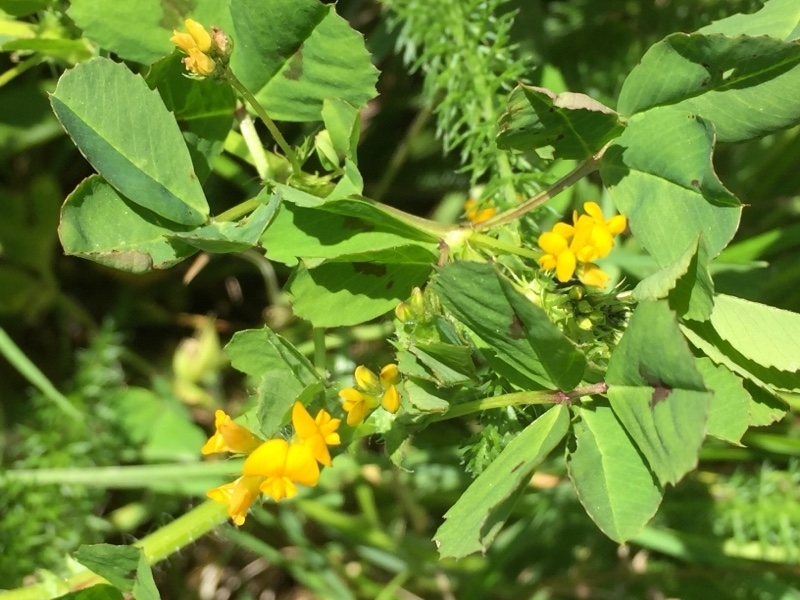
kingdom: Plantae
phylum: Tracheophyta
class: Magnoliopsida
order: Fabales
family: Fabaceae
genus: Medicago
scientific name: Medicago arabica
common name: Spotted medick
